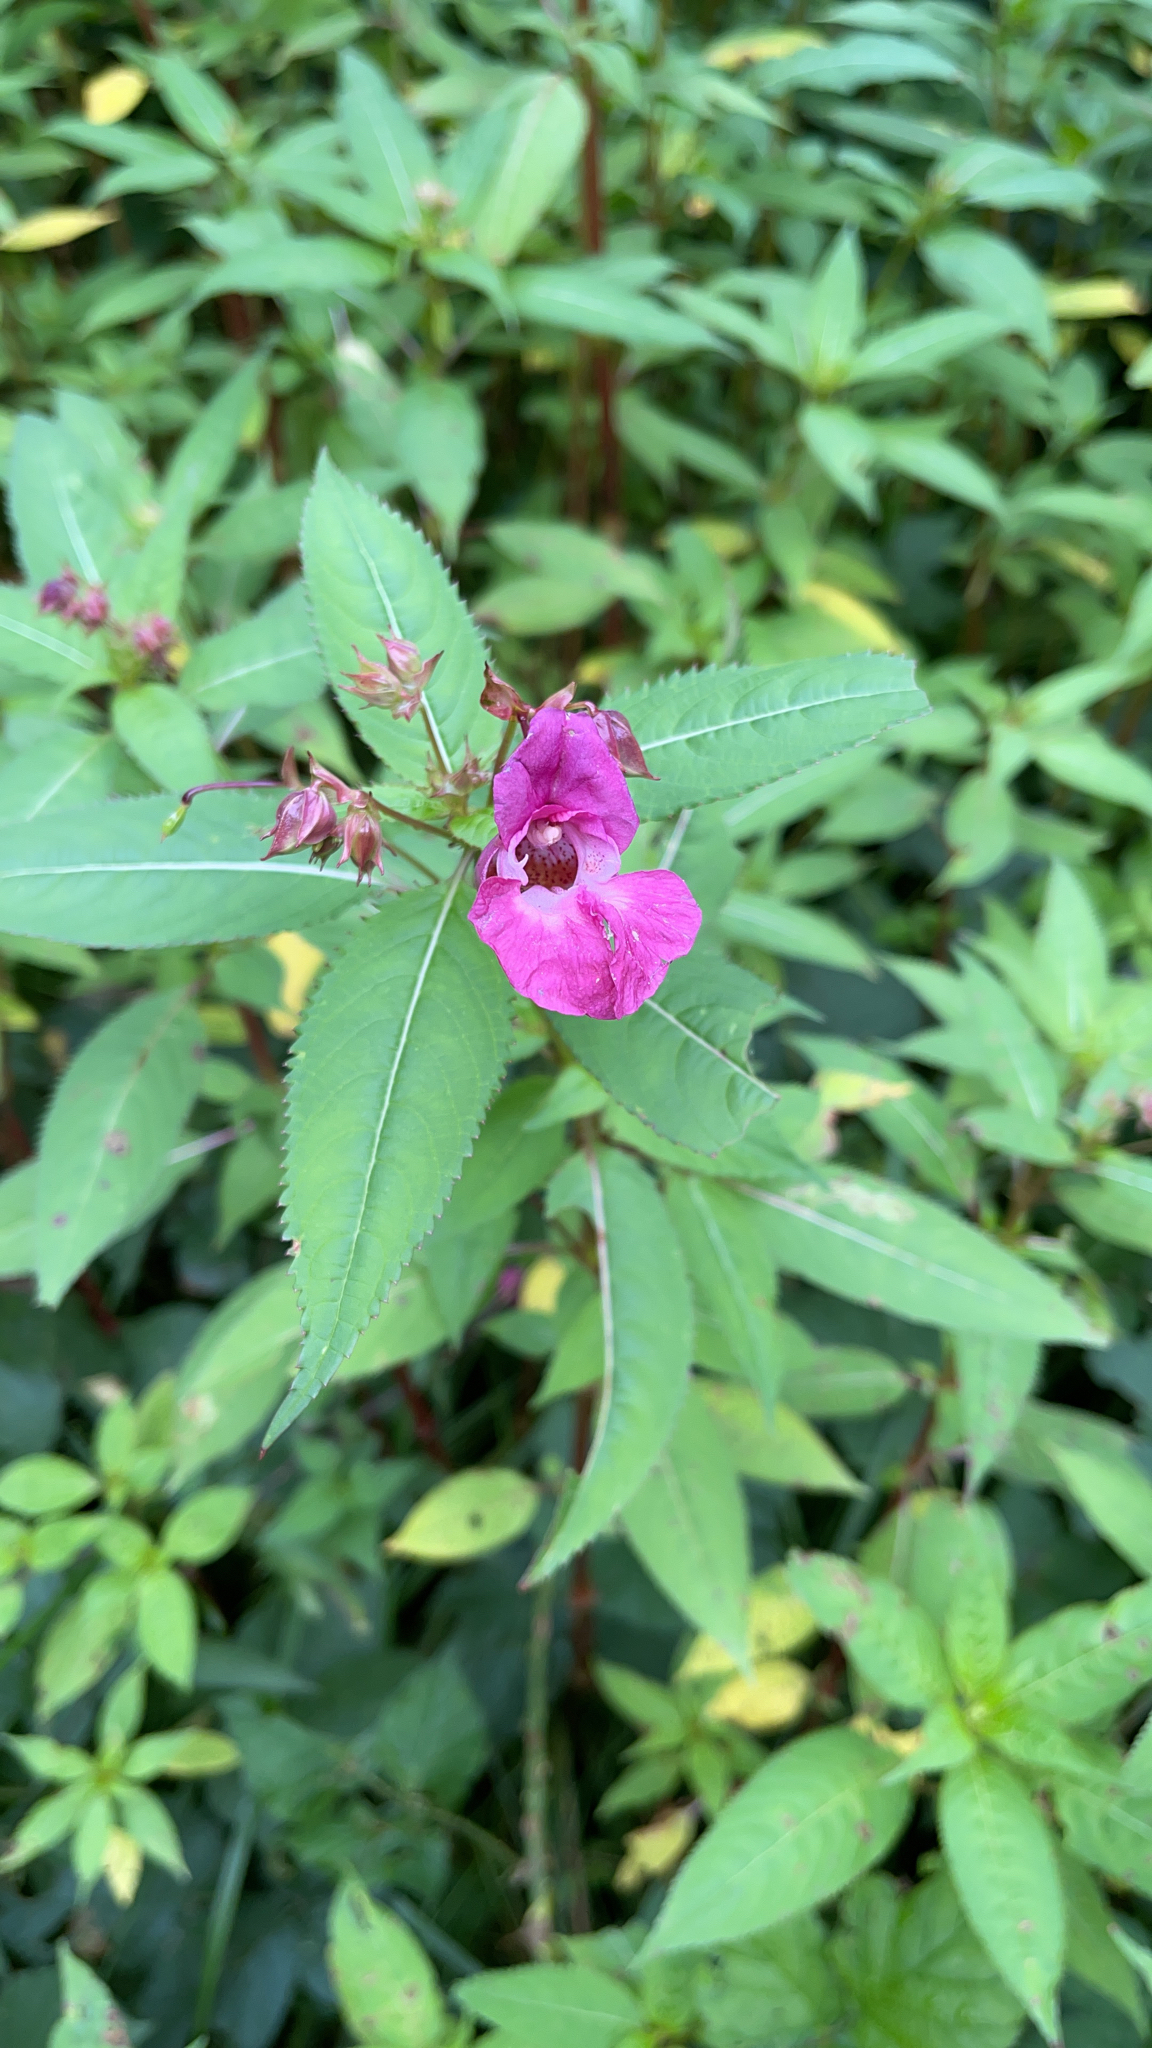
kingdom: Plantae
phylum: Tracheophyta
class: Magnoliopsida
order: Ericales
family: Balsaminaceae
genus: Impatiens
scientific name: Impatiens glandulifera
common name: Himalayan balsam
